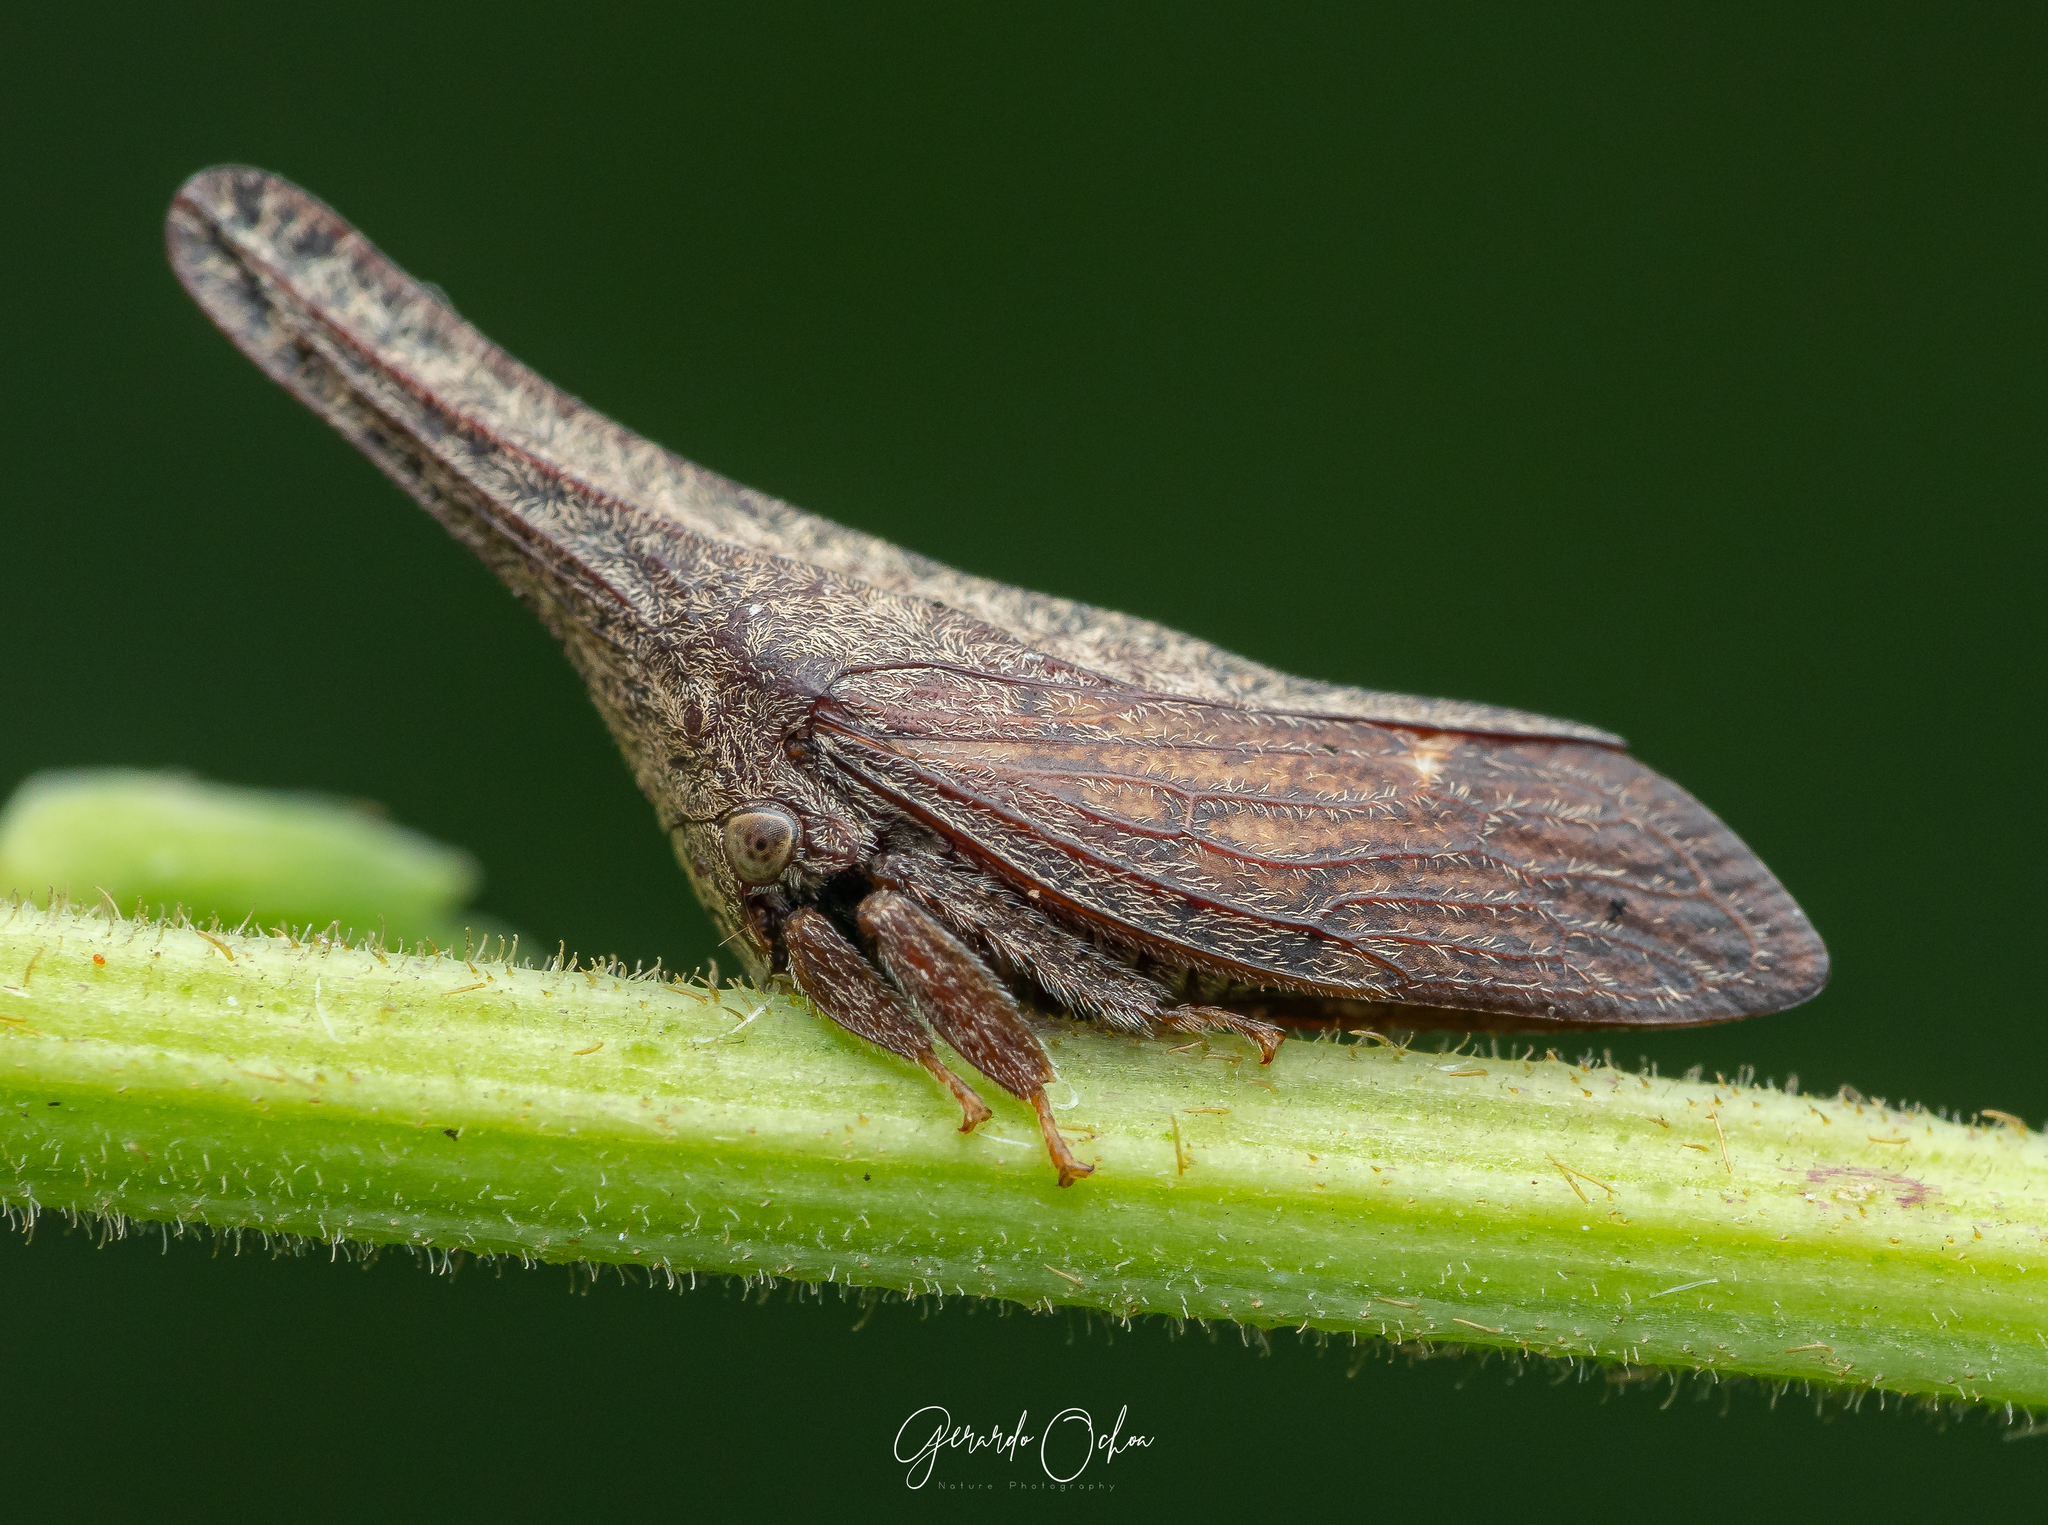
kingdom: Animalia
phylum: Arthropoda
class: Insecta
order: Hemiptera
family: Membracidae
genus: Enchenopa
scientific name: Enchenopa sericea
